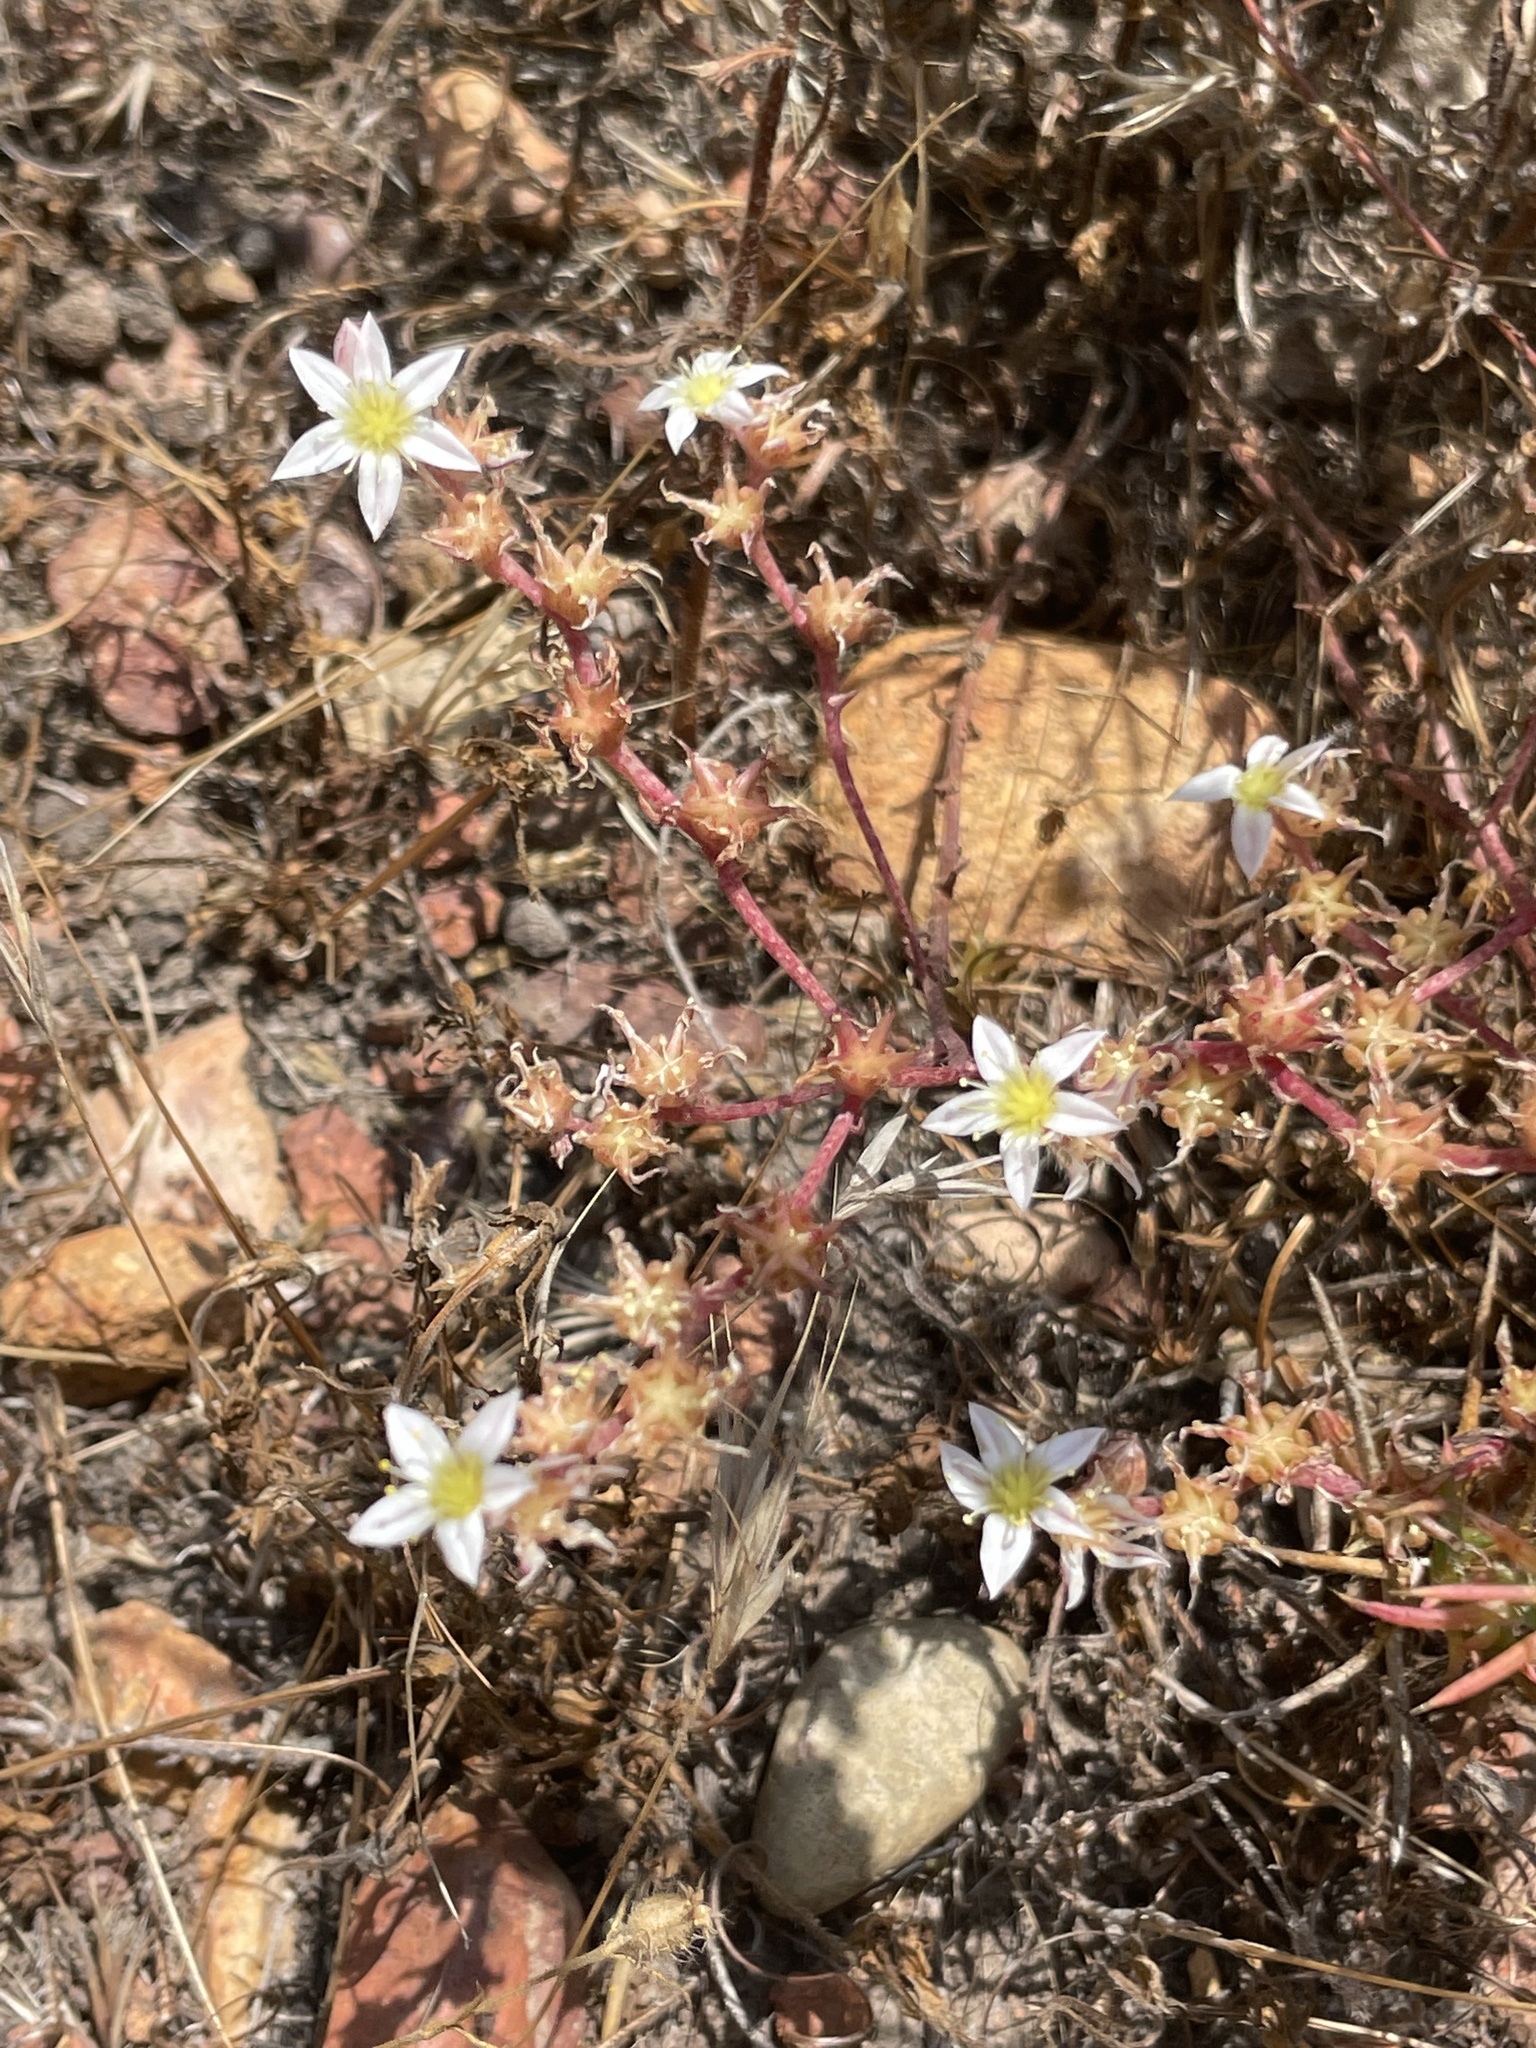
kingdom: Plantae
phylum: Tracheophyta
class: Magnoliopsida
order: Saxifragales
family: Crassulaceae
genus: Dudleya
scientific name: Dudleya blochmaniae
